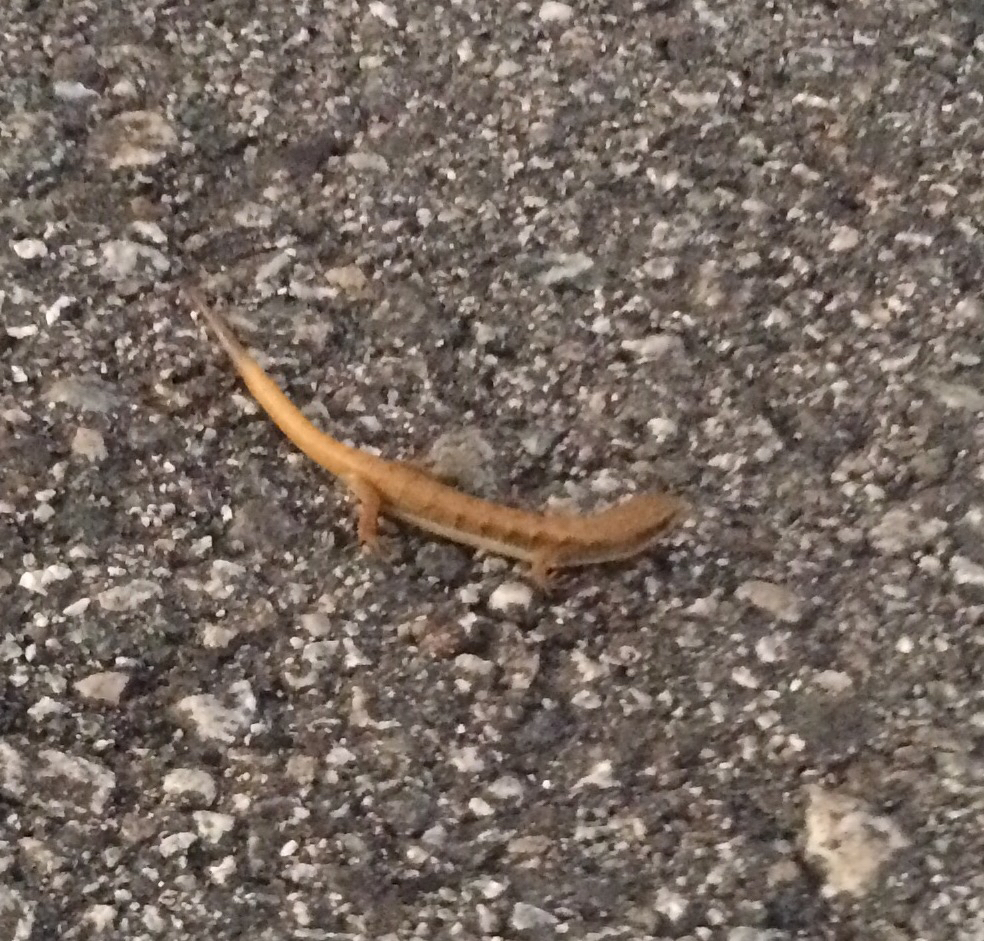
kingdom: Animalia
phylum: Chordata
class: Squamata
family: Anguidae
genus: Elgaria
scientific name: Elgaria multicarinata
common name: Southern alligator lizard
